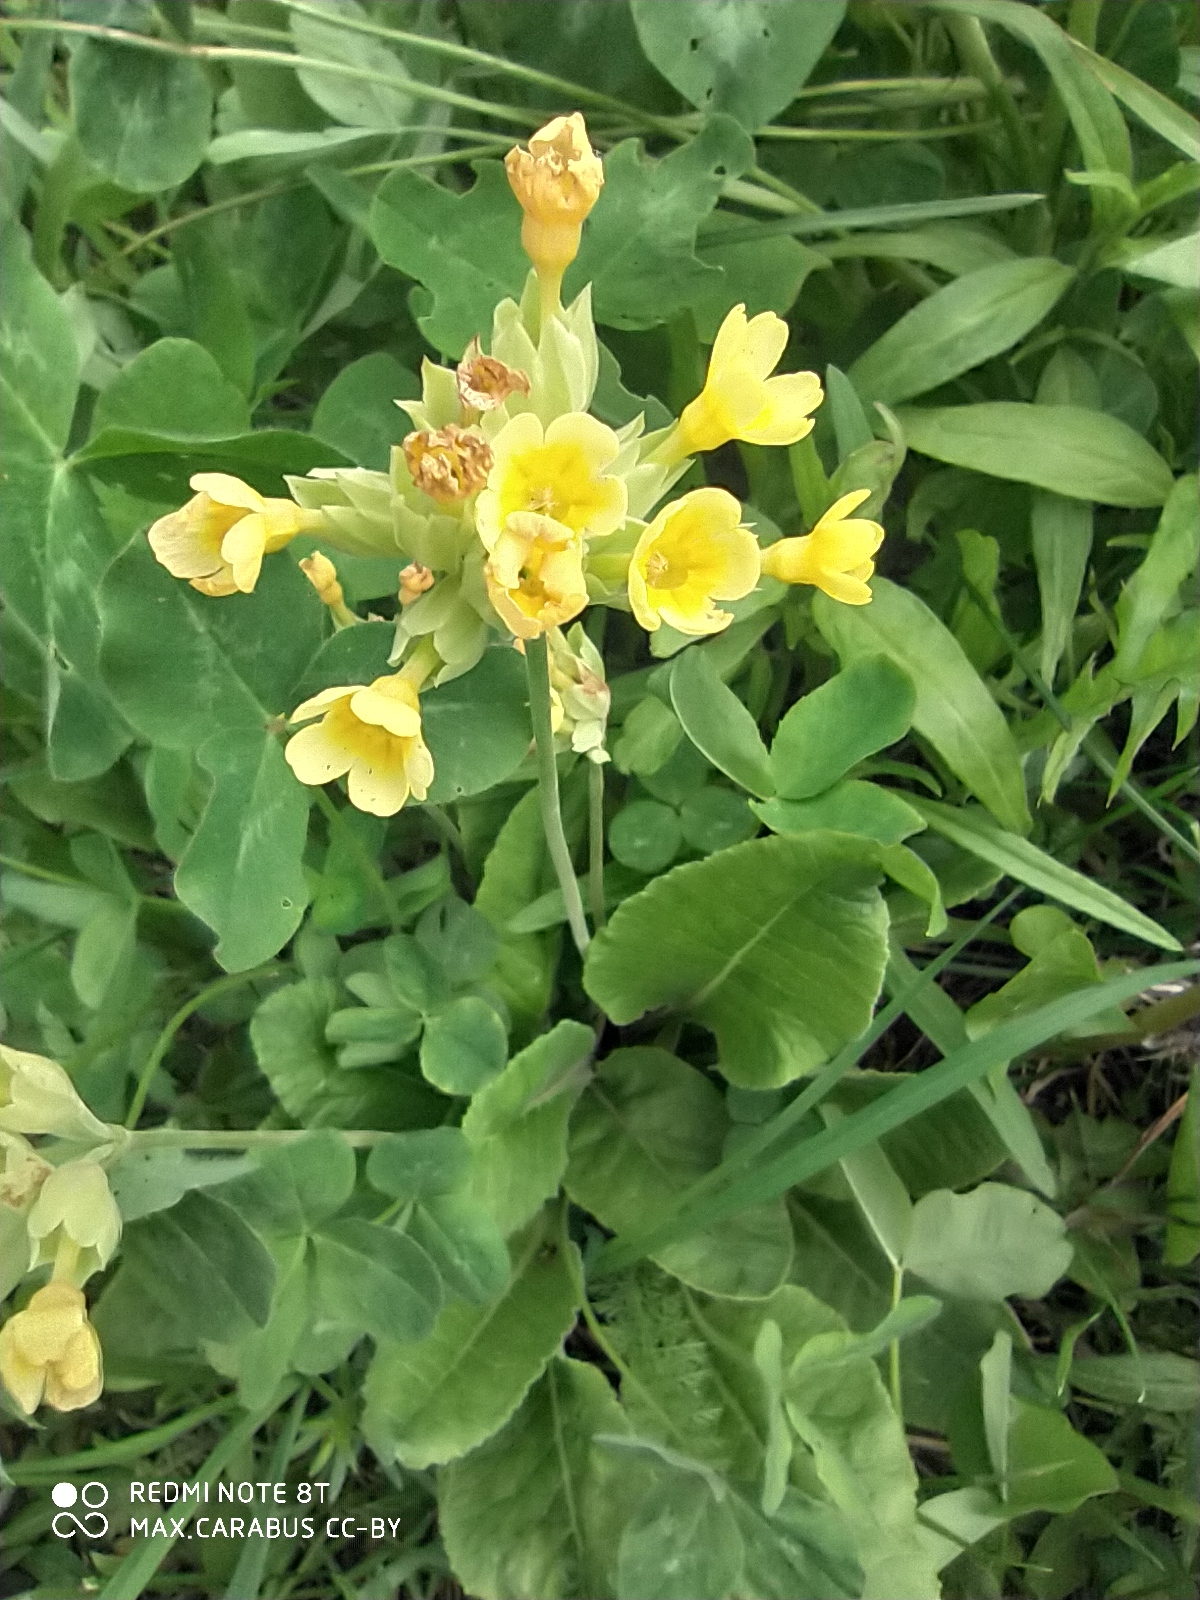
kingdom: Plantae
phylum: Tracheophyta
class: Magnoliopsida
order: Ericales
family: Primulaceae
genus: Primula
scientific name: Primula veris
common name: Cowslip
